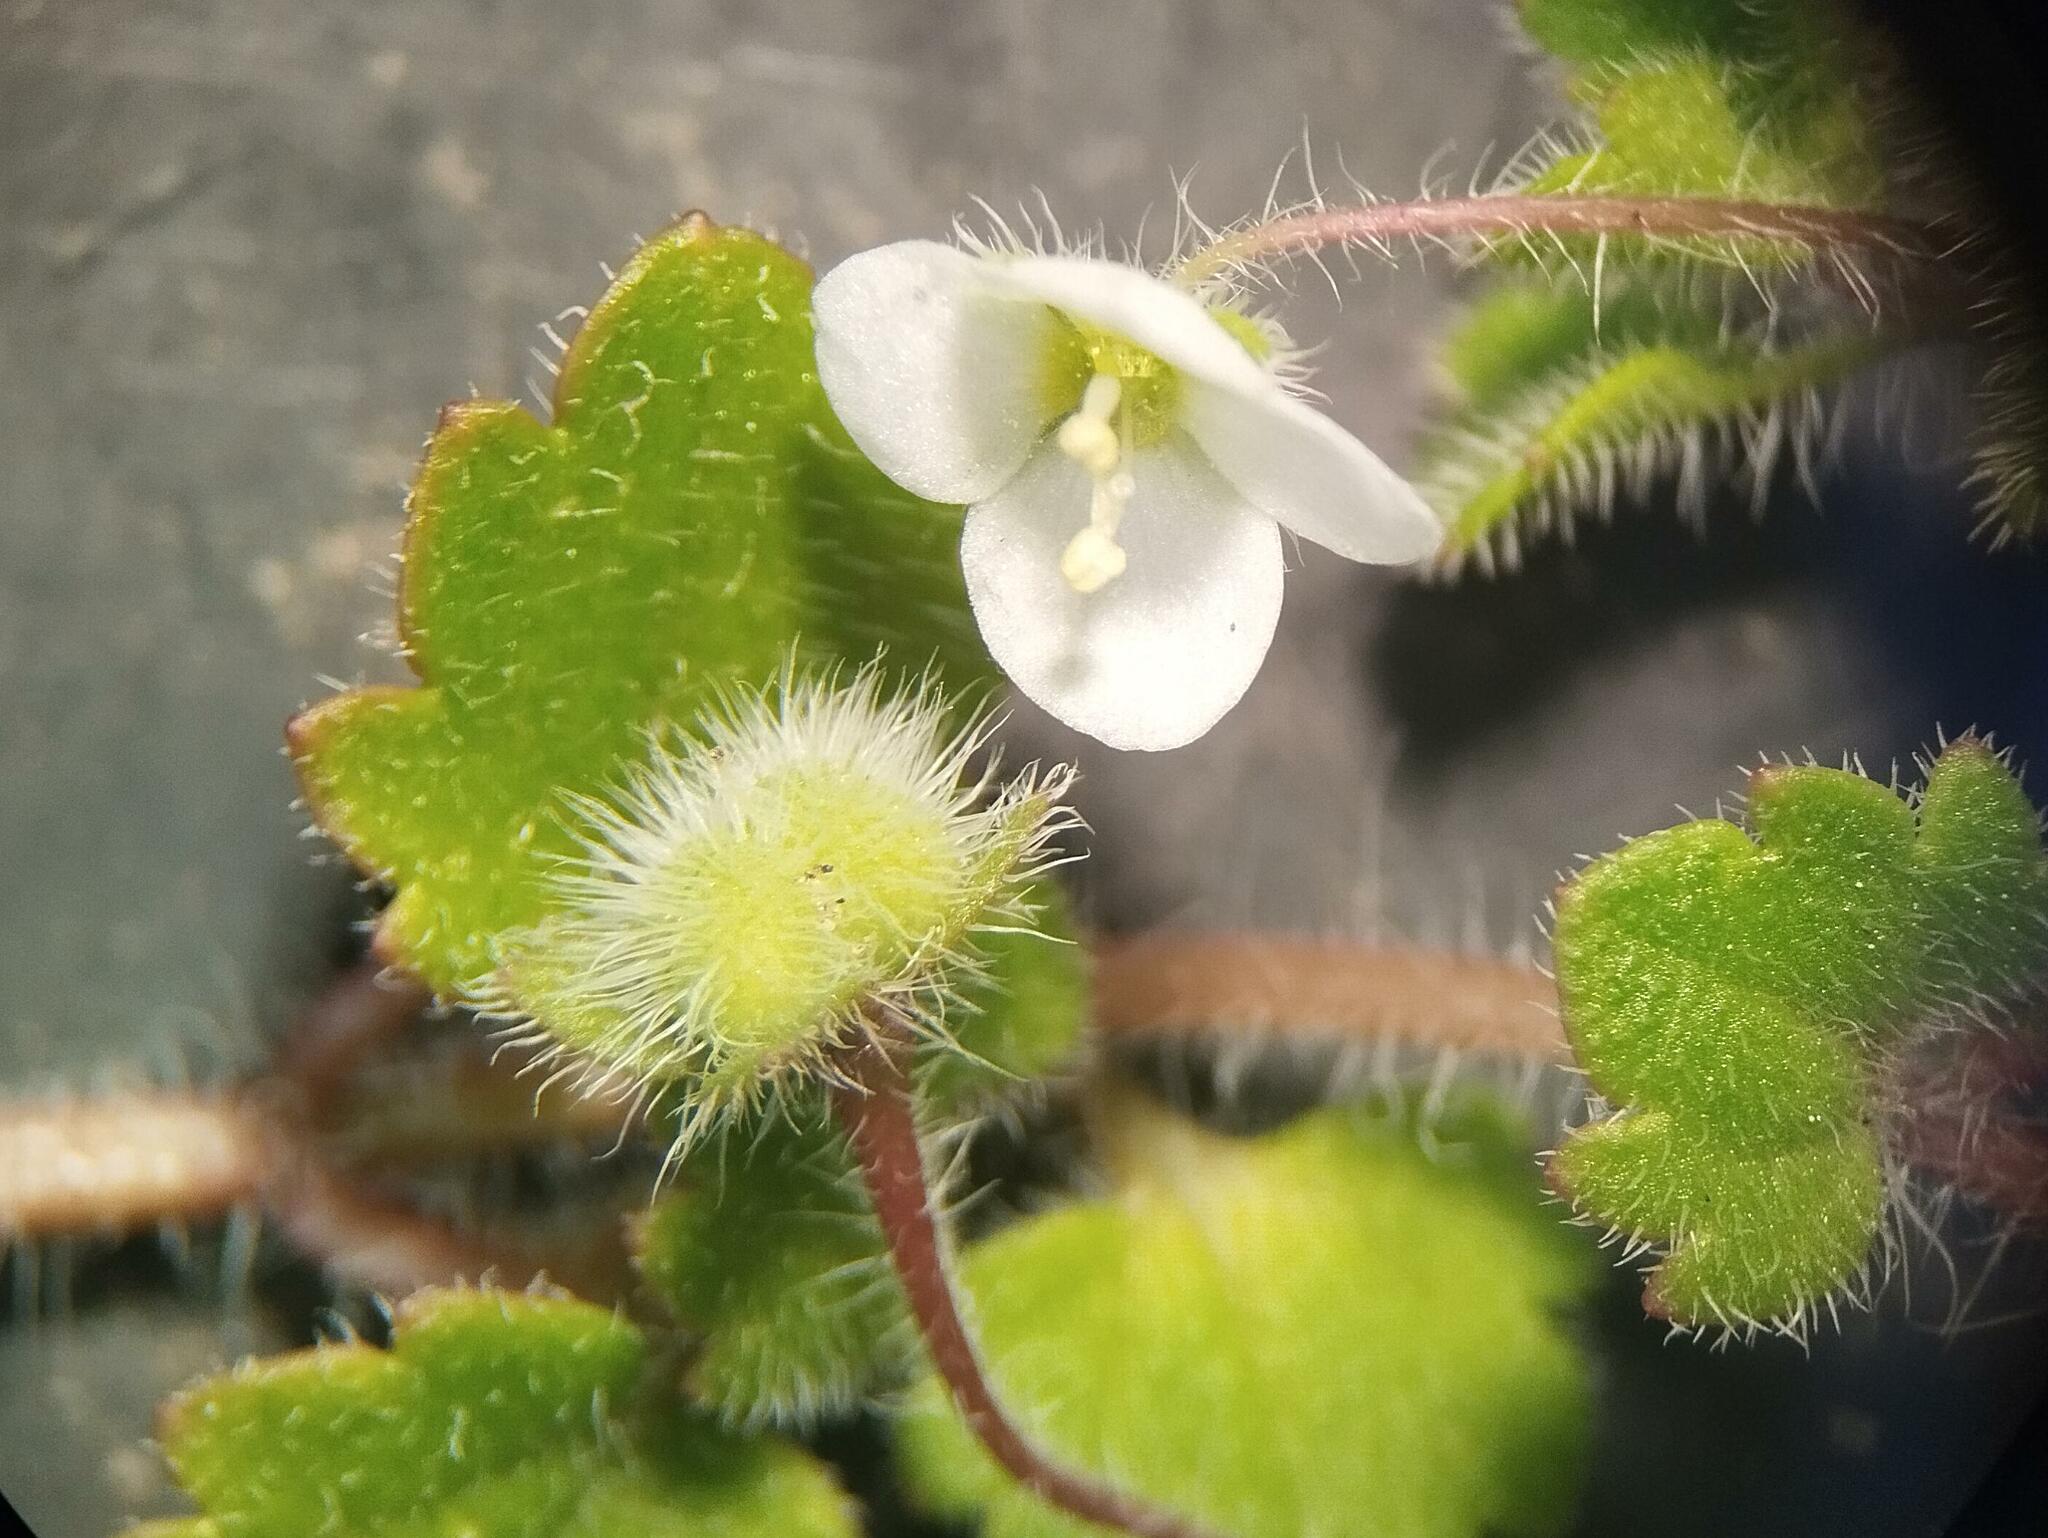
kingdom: Plantae
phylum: Tracheophyta
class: Magnoliopsida
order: Lamiales
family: Plantaginaceae
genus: Veronica
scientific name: Veronica cymbalaria
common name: Pale speedwell
